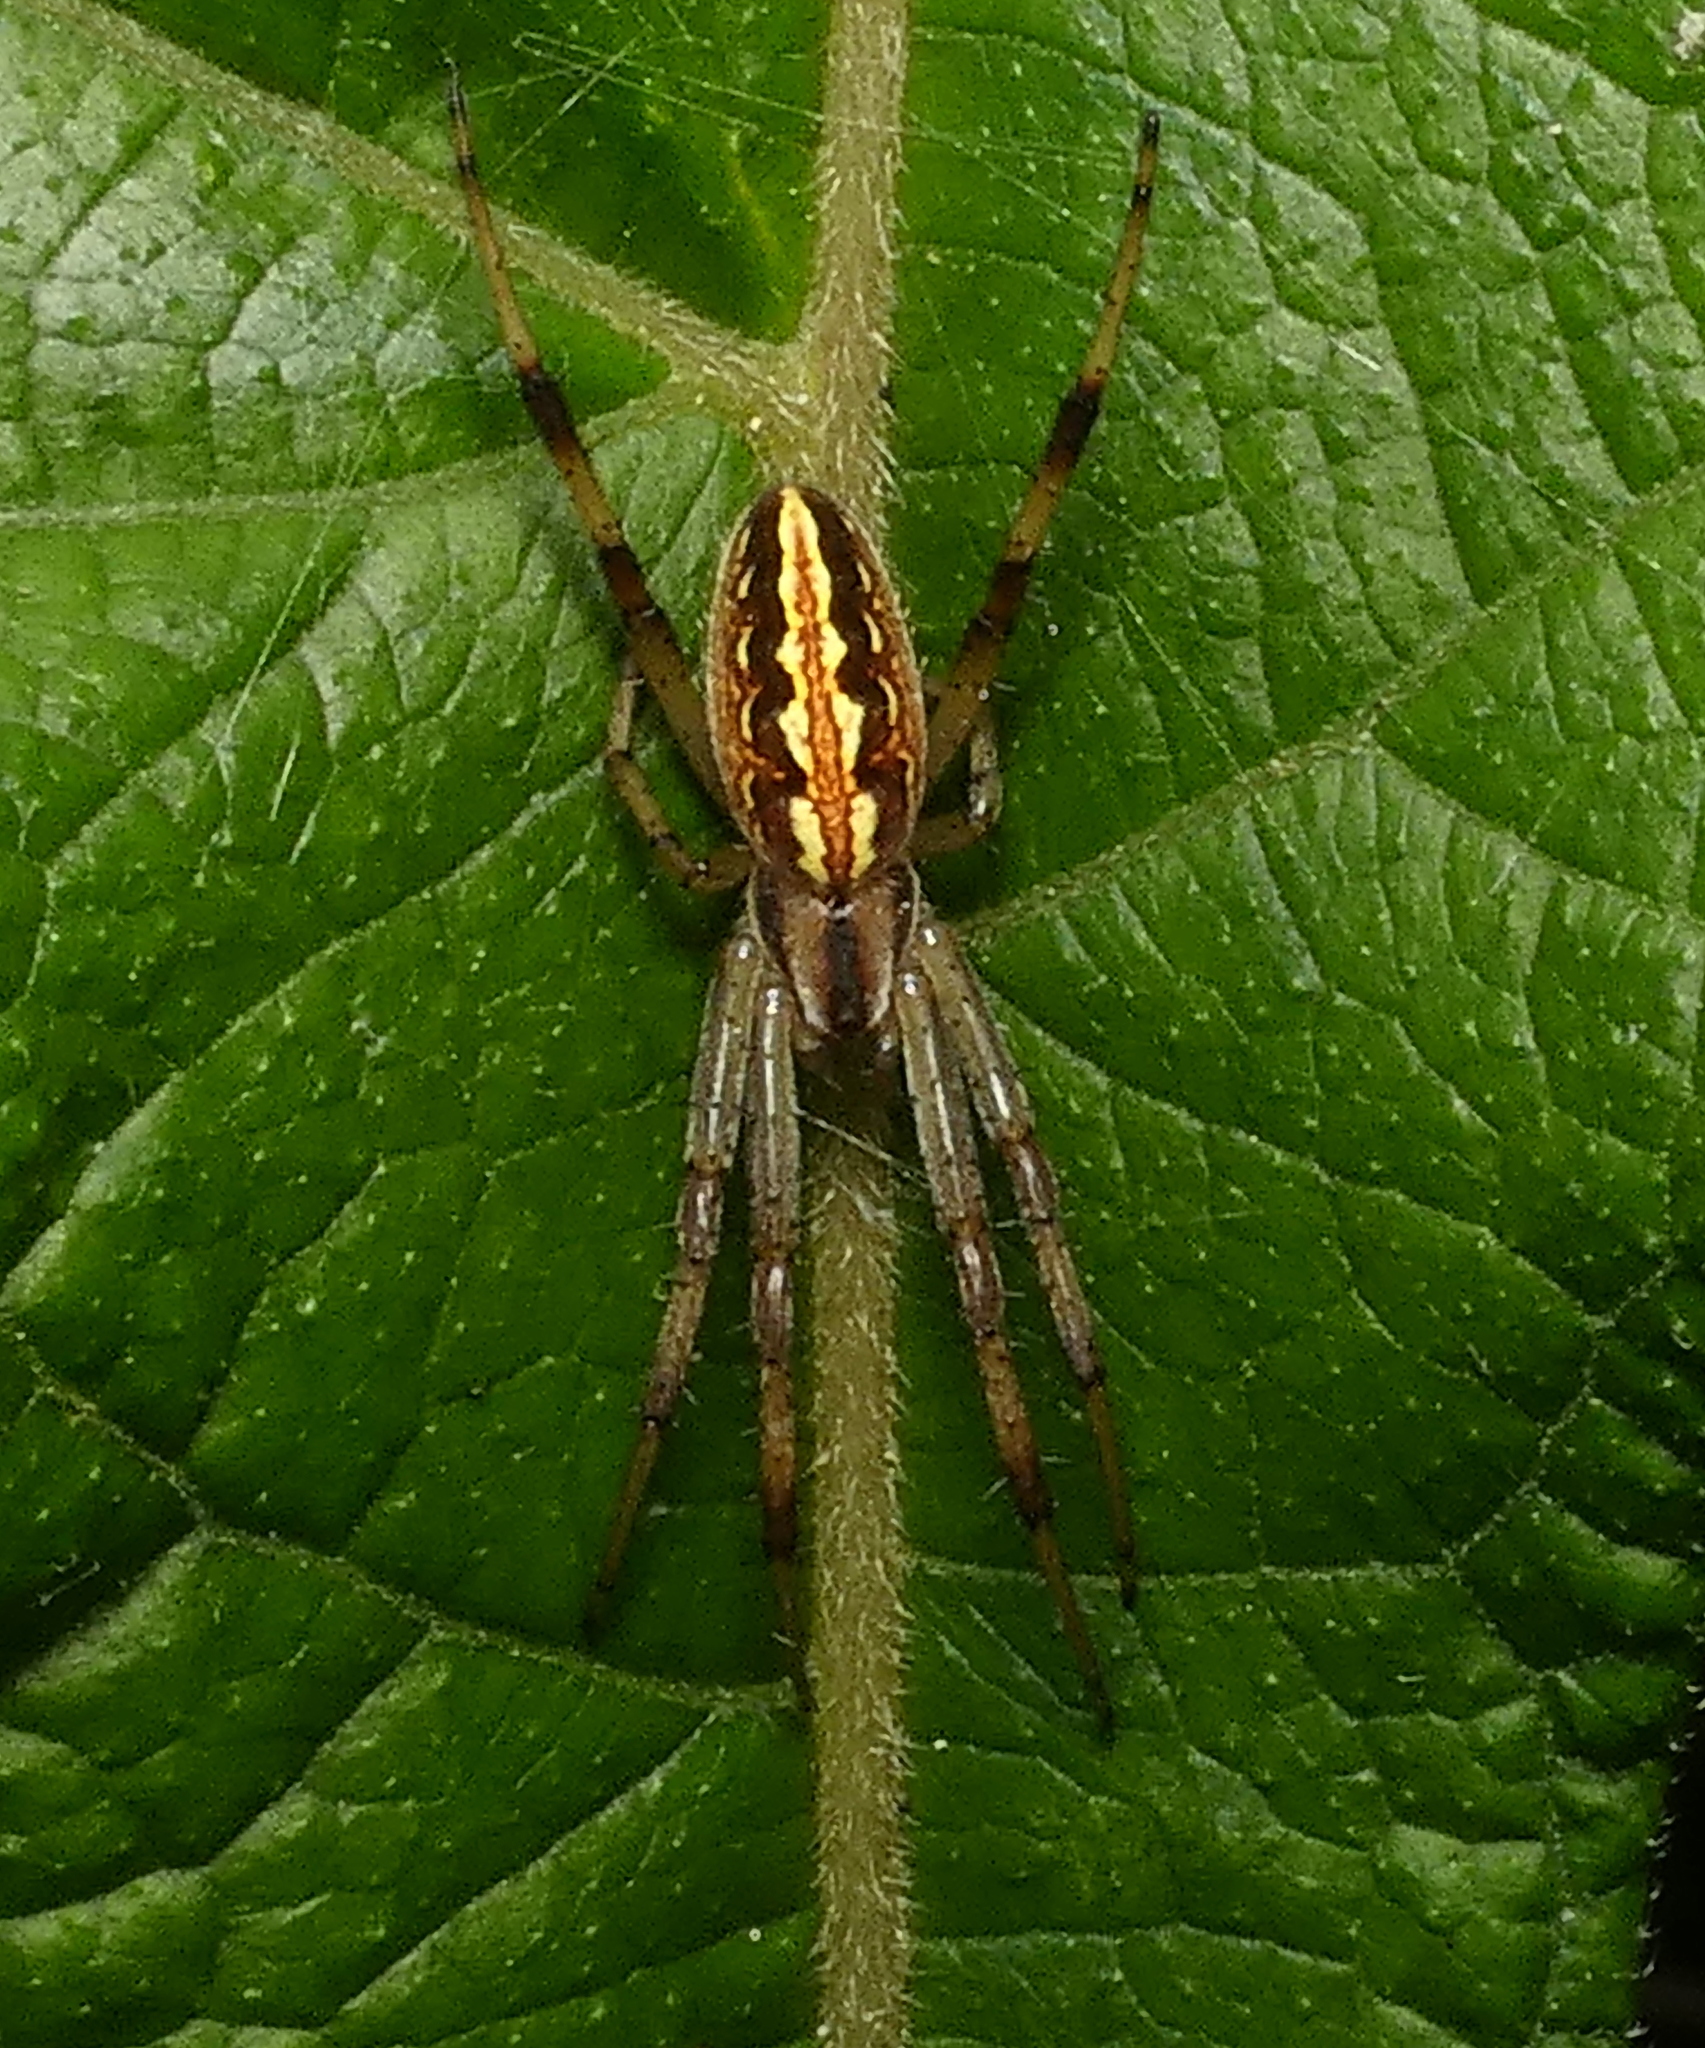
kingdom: Animalia
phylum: Arthropoda
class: Arachnida
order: Araneae
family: Araneidae
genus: Neoscona
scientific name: Neoscona moreli
